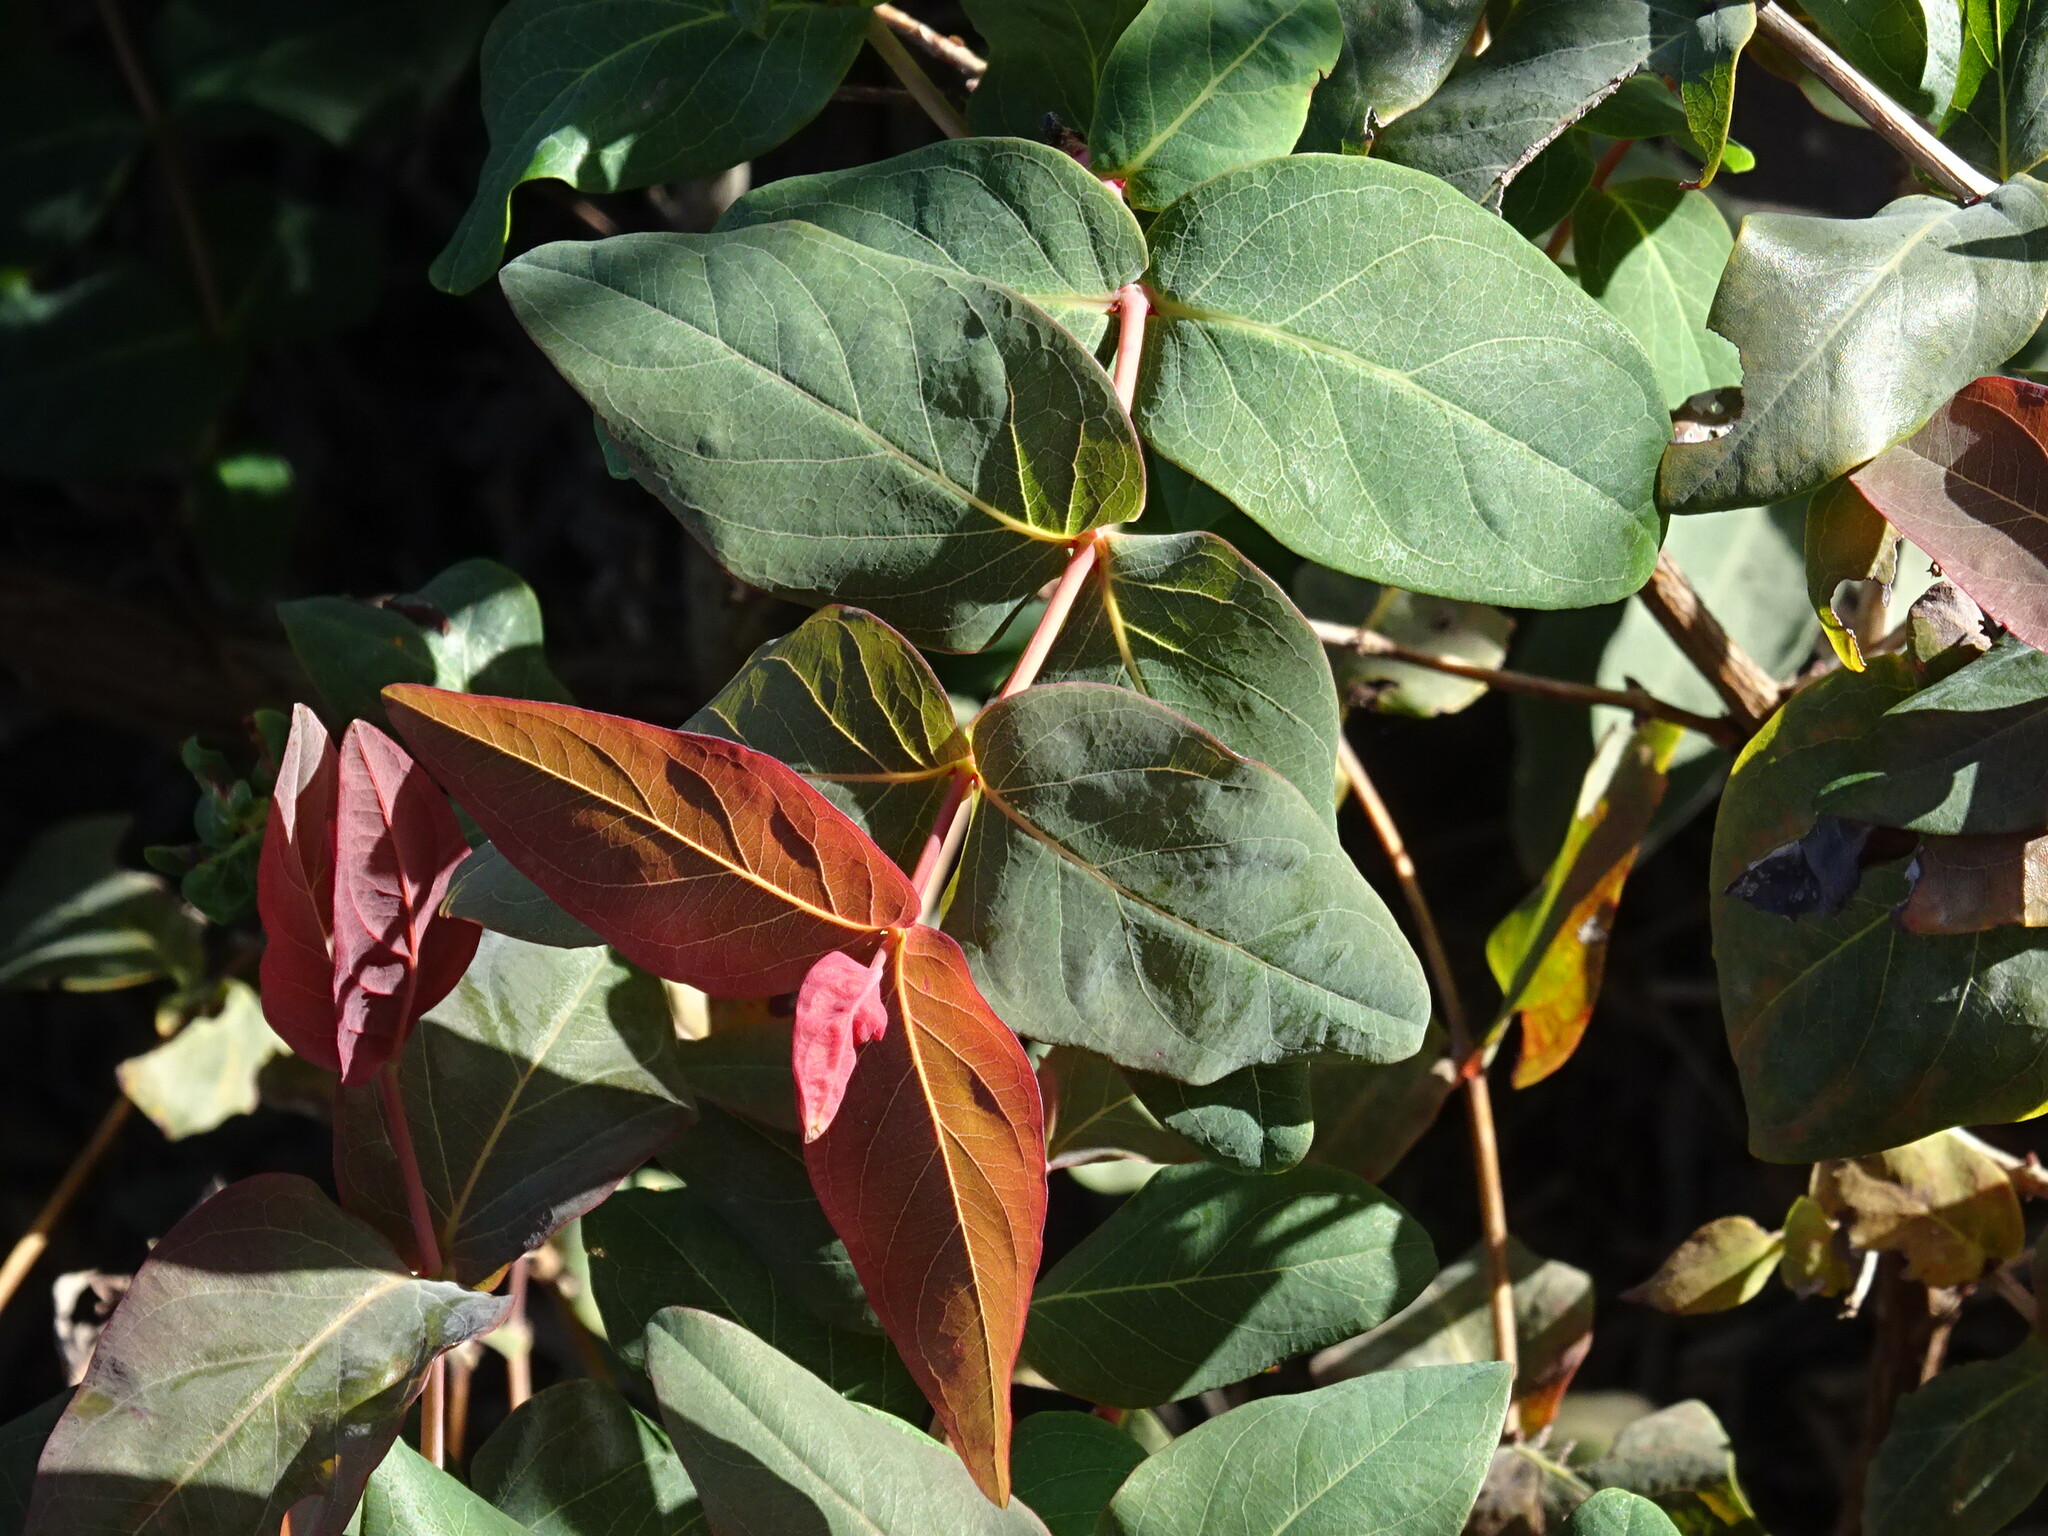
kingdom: Plantae
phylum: Tracheophyta
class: Magnoliopsida
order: Malpighiales
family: Hypericaceae
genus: Hypericum
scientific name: Hypericum grandifolium
